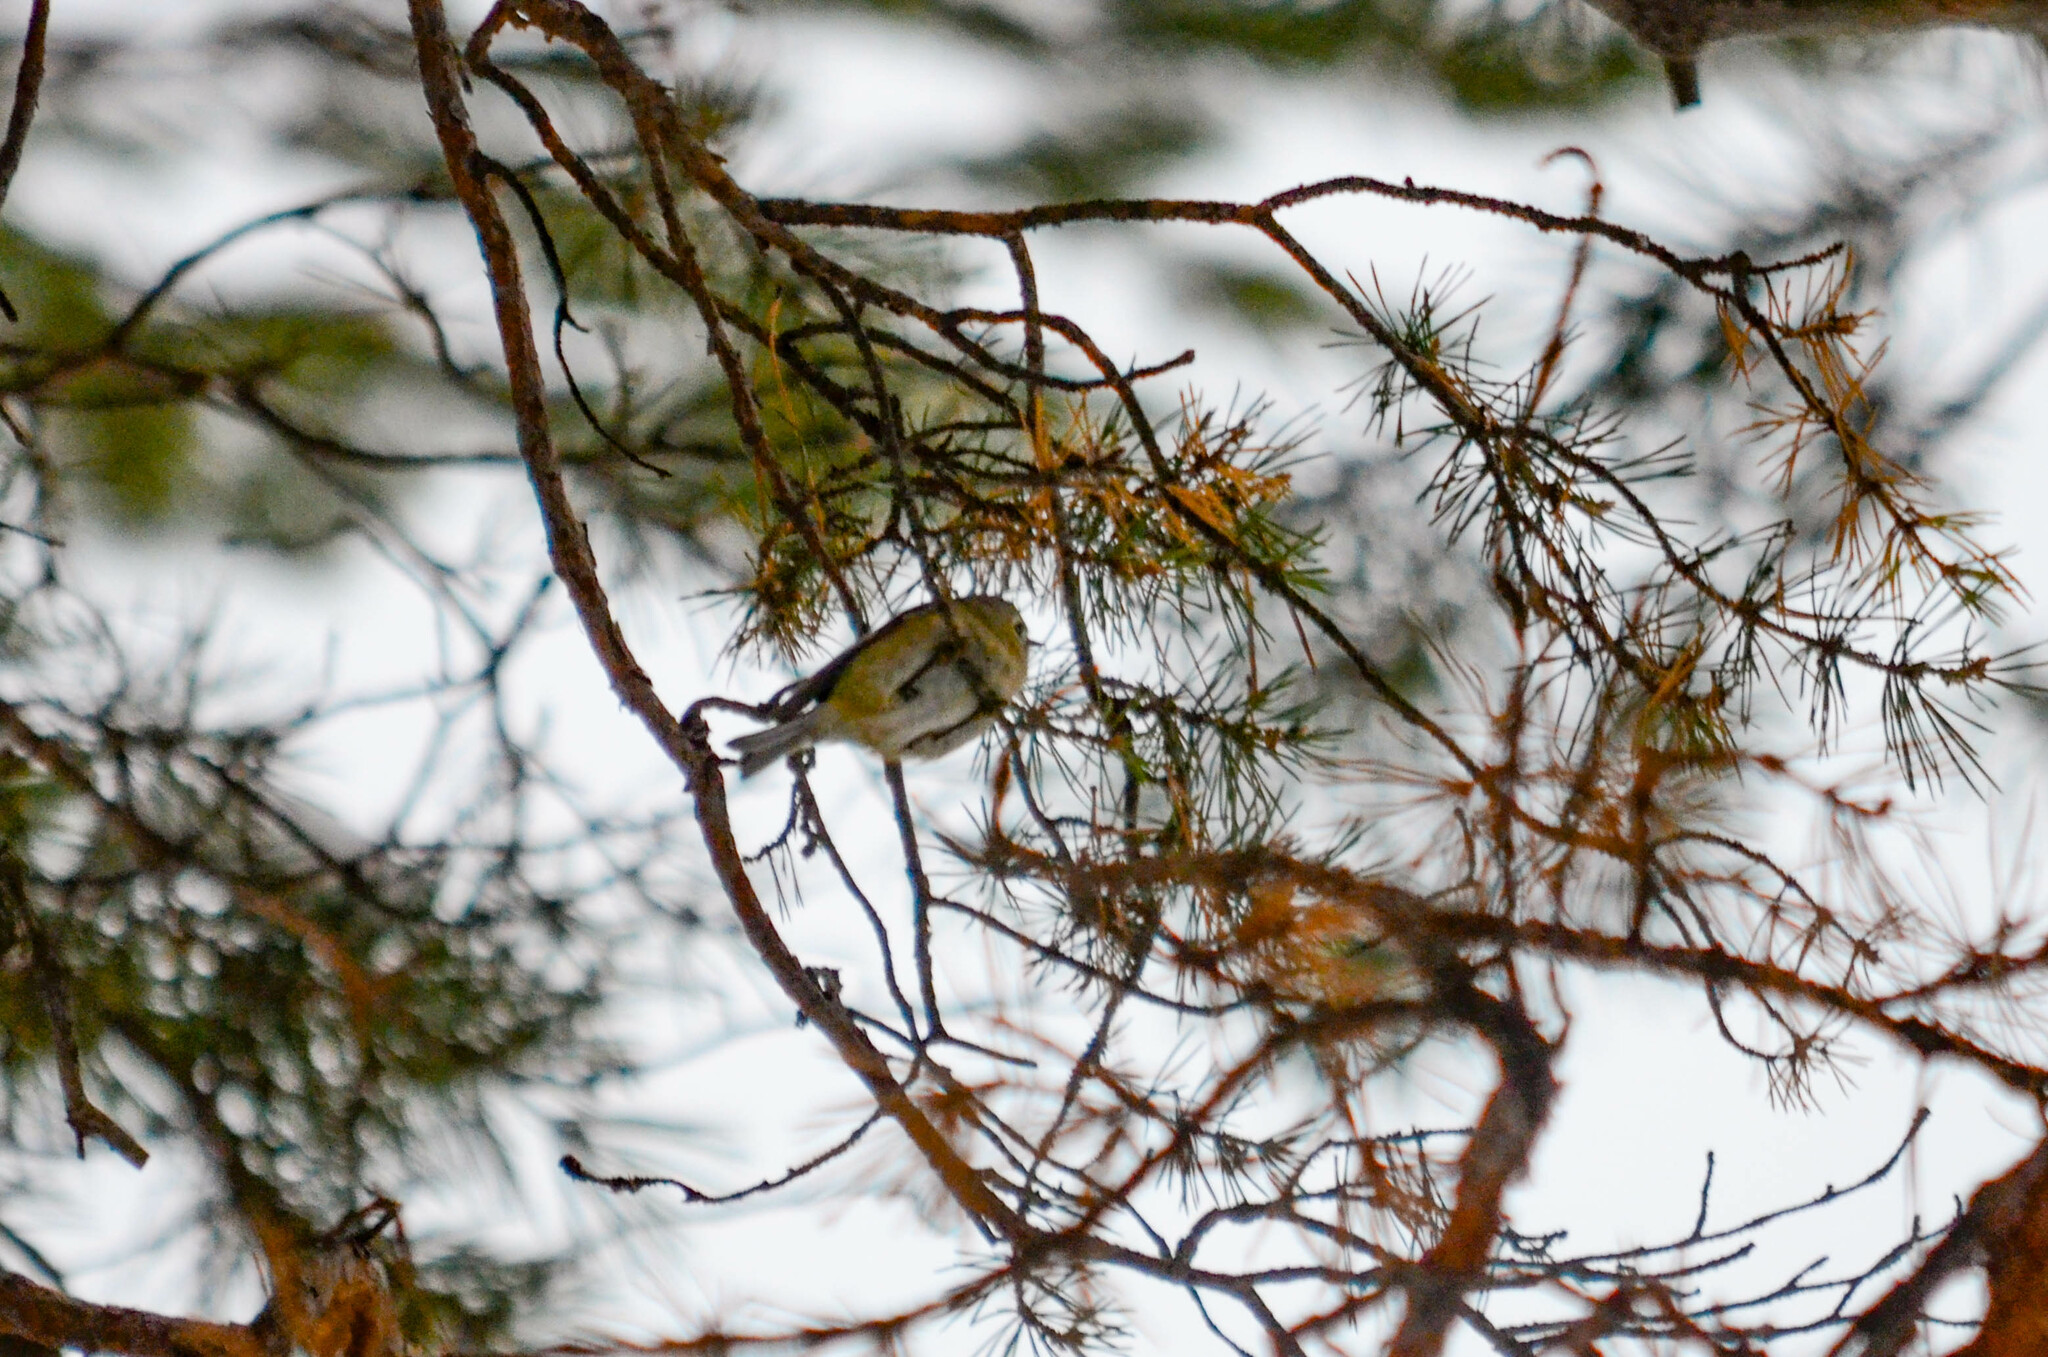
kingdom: Animalia
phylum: Chordata
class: Aves
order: Passeriformes
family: Regulidae
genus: Regulus
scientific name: Regulus regulus
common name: Goldcrest
